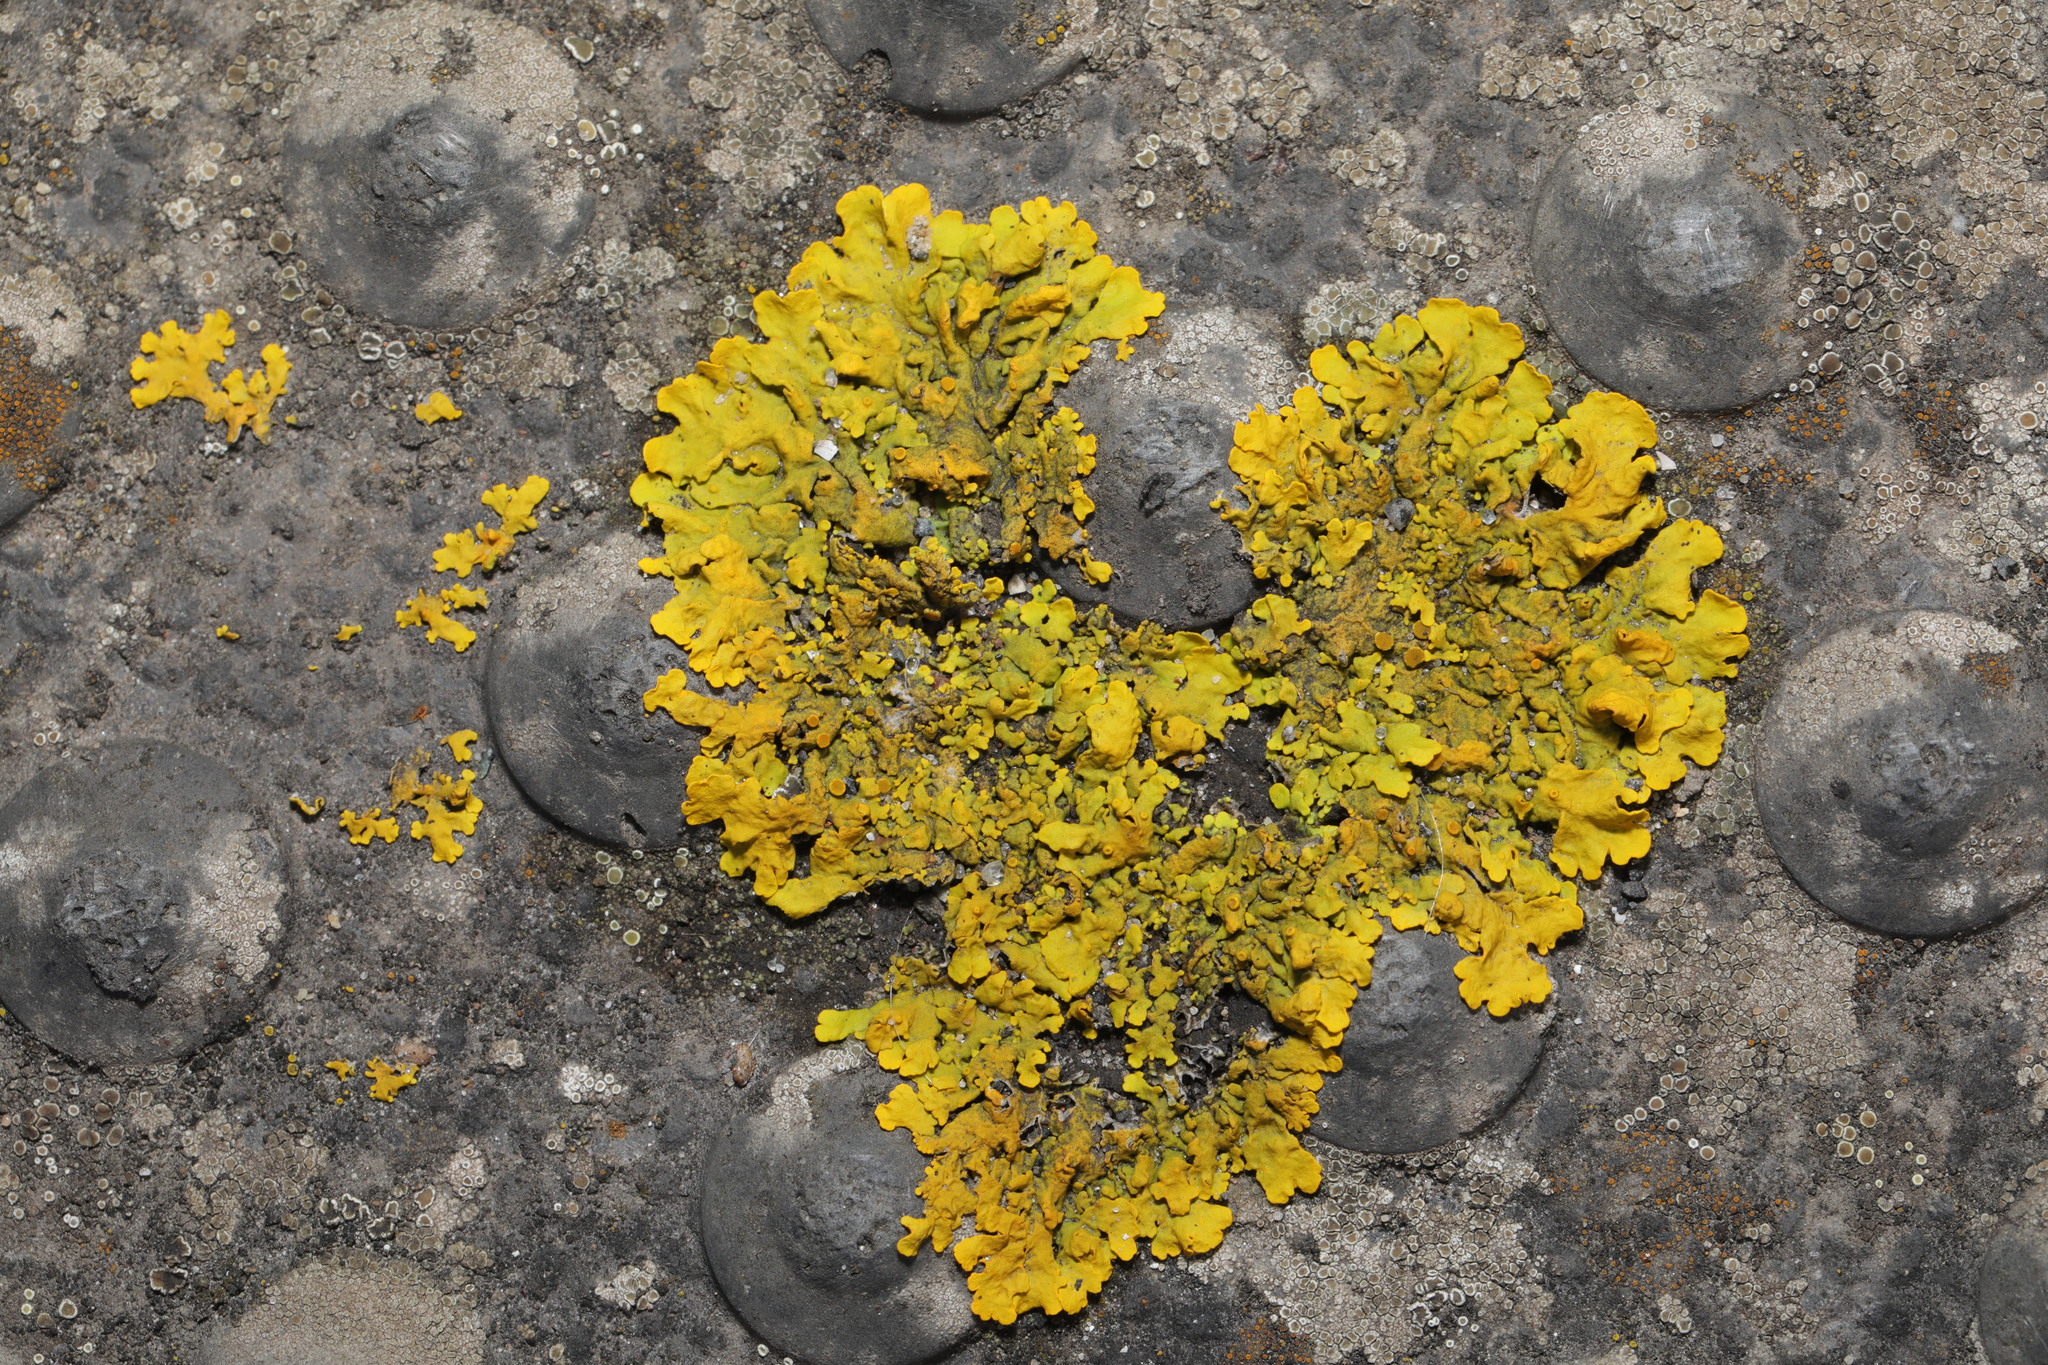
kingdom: Fungi
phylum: Ascomycota
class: Lecanoromycetes
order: Teloschistales
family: Teloschistaceae
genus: Xanthoria
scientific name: Xanthoria parietina
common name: Common orange lichen
